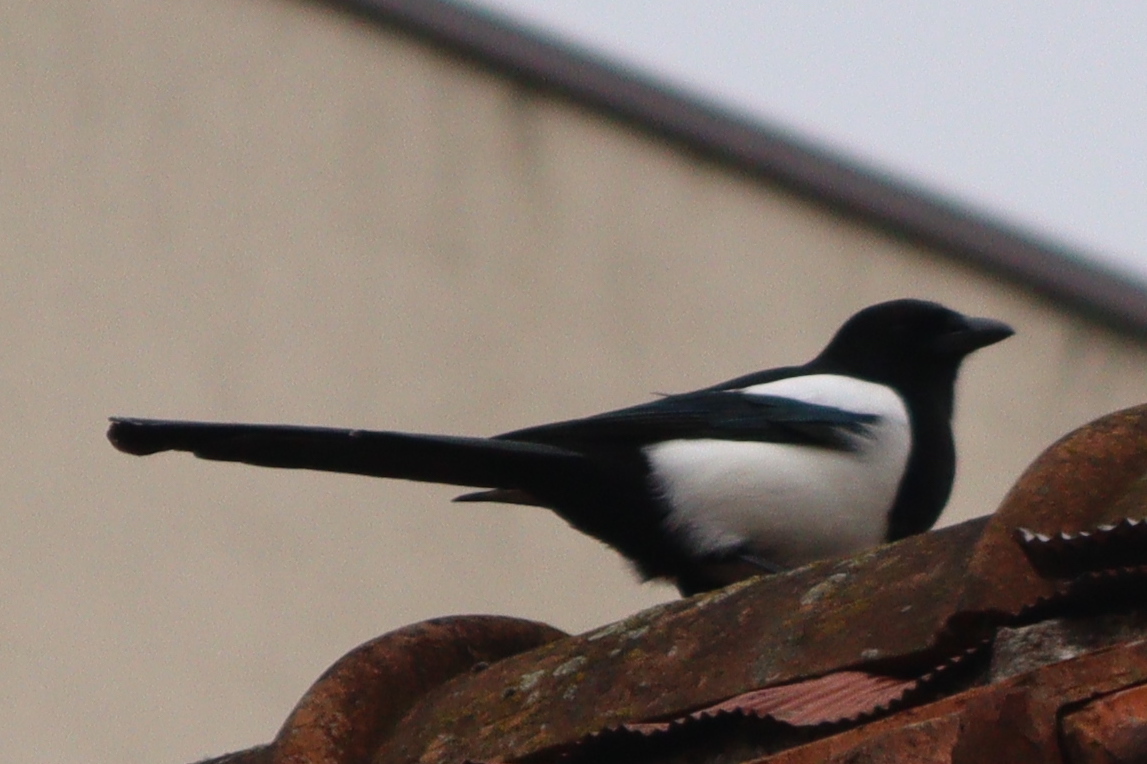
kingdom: Animalia
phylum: Chordata
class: Aves
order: Passeriformes
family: Corvidae
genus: Pica
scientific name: Pica pica
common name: Eurasian magpie
